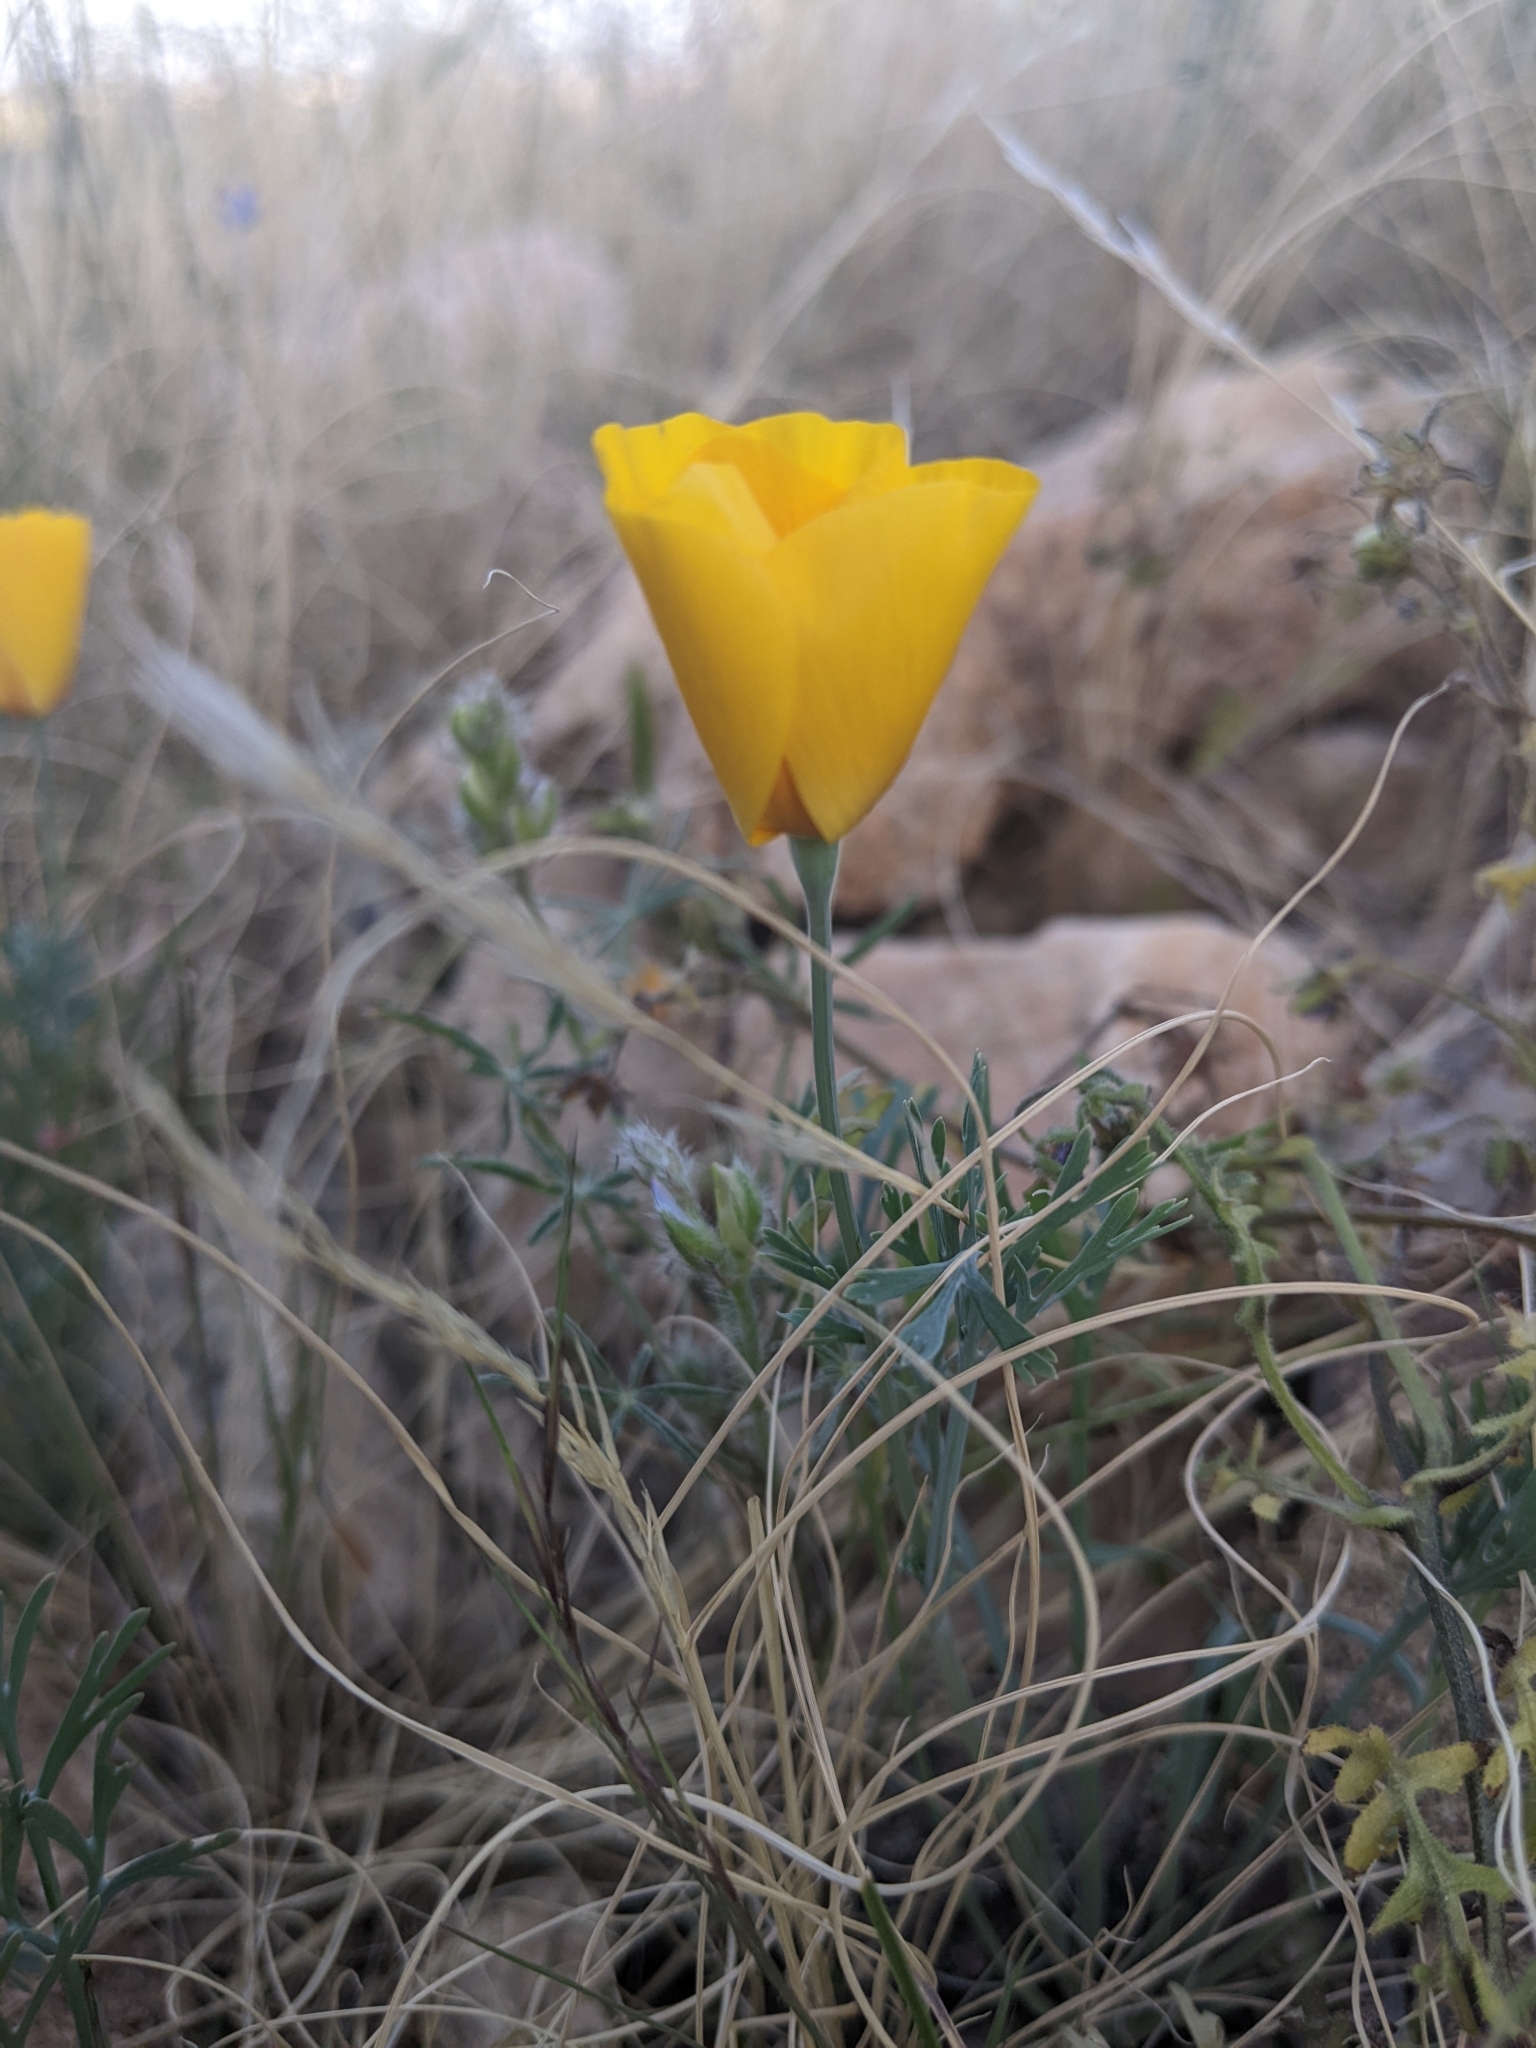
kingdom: Plantae
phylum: Tracheophyta
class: Magnoliopsida
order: Ranunculales
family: Papaveraceae
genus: Eschscholzia
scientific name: Eschscholzia californica
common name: California poppy
